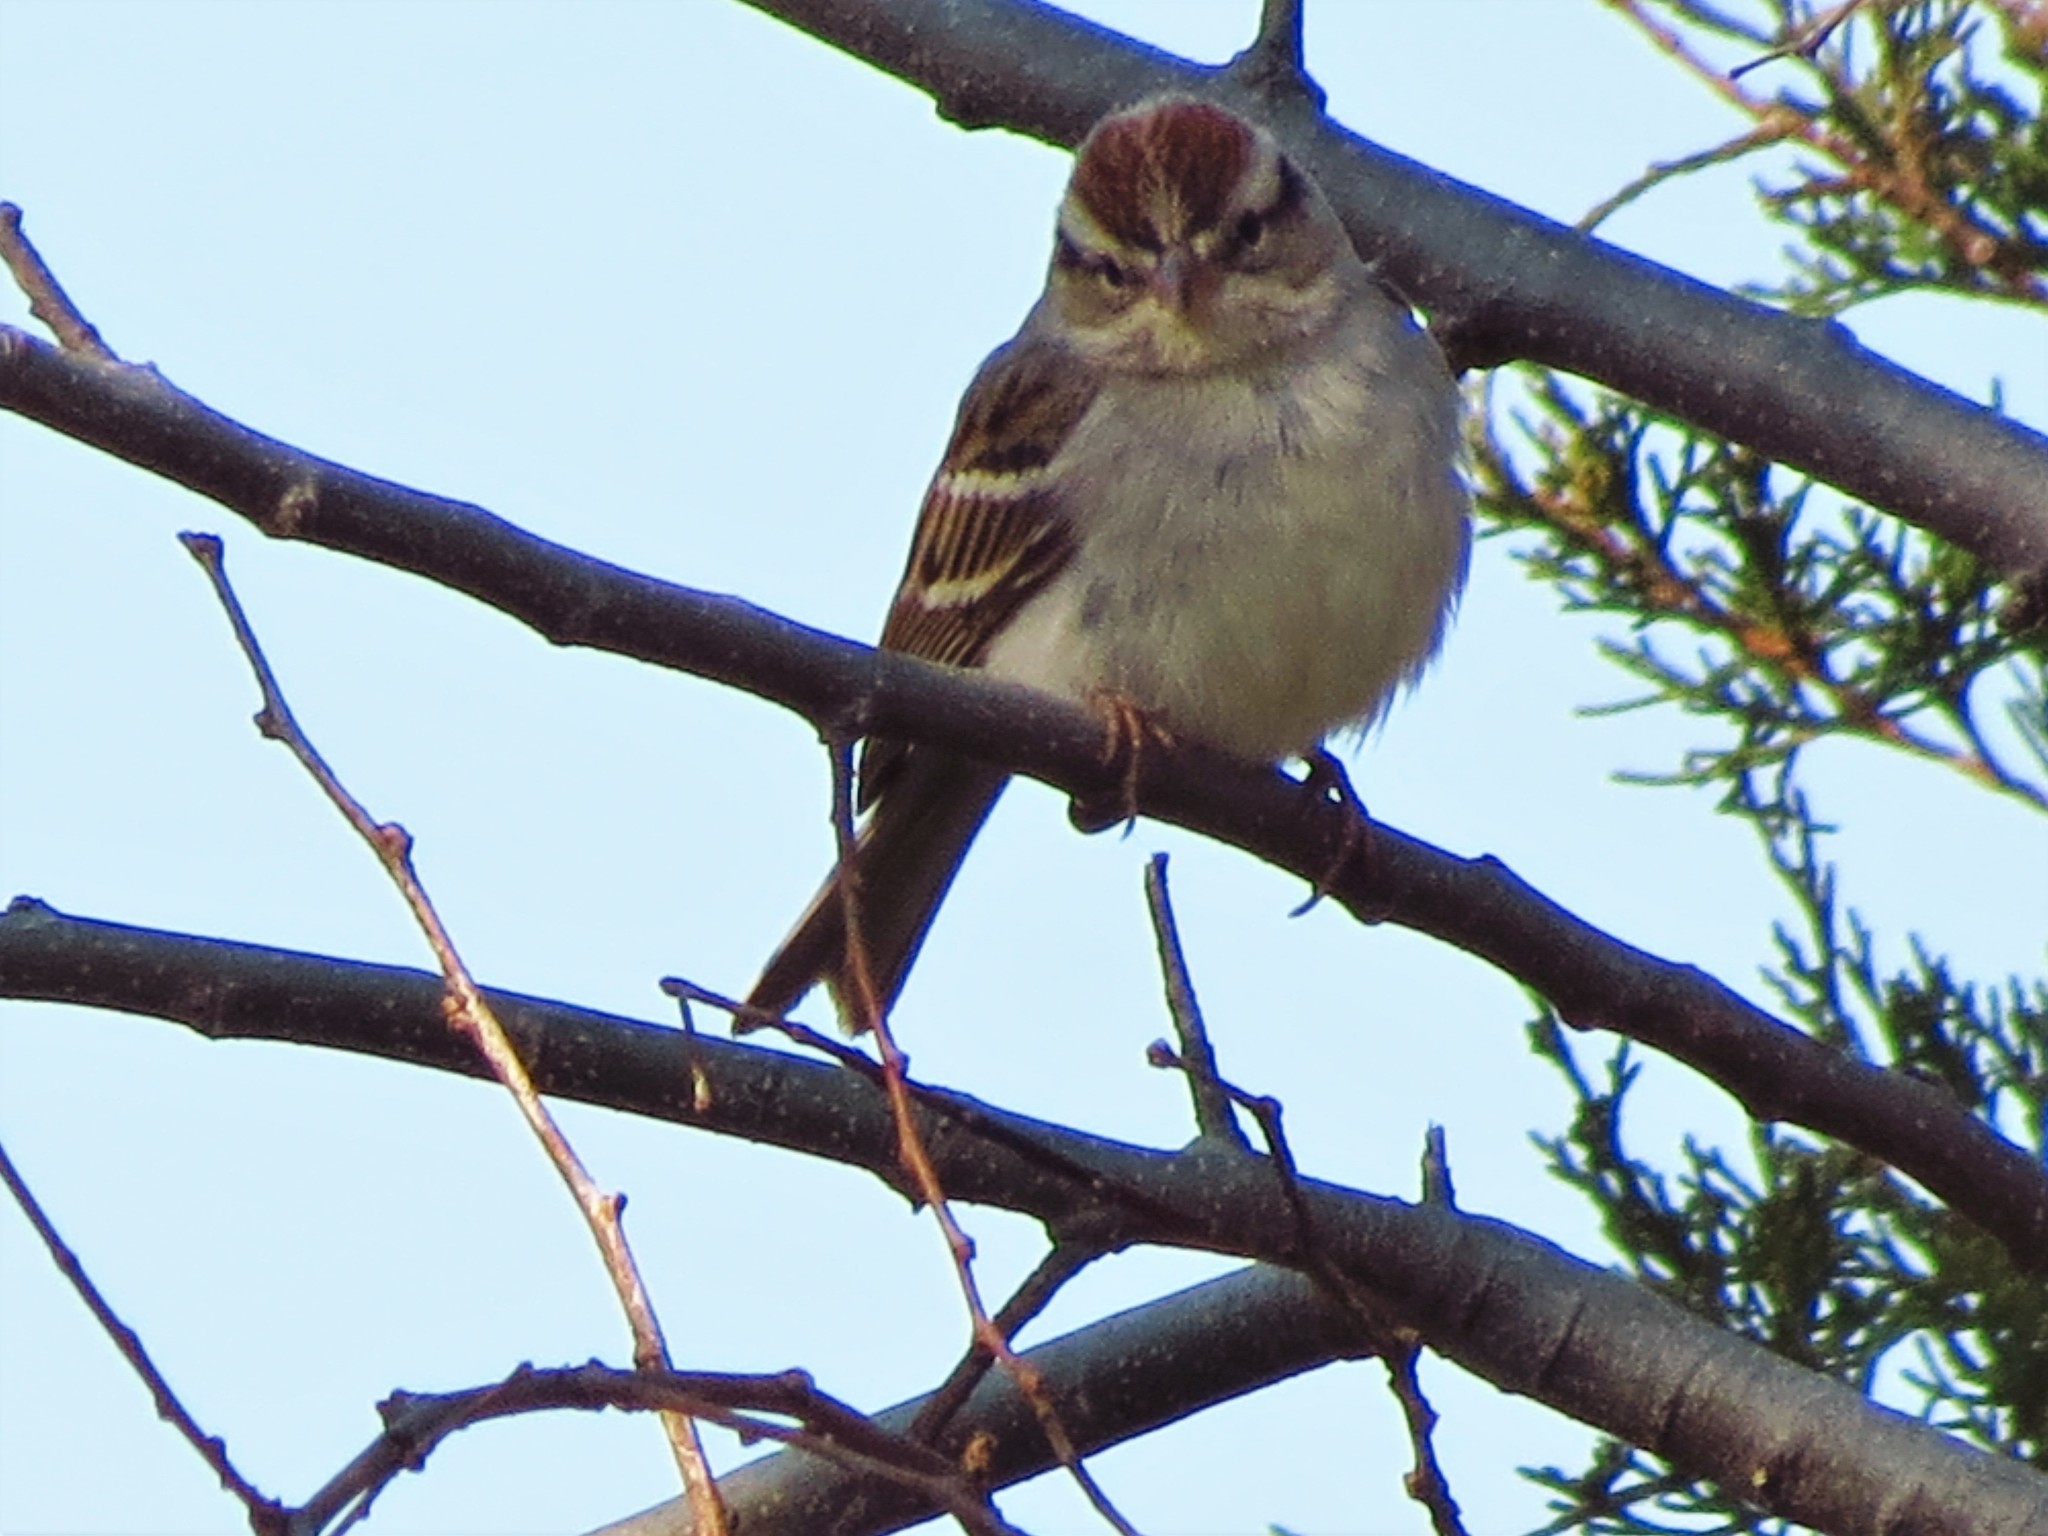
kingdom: Animalia
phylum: Chordata
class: Aves
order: Passeriformes
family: Passerellidae
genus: Spizella
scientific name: Spizella passerina
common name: Chipping sparrow
